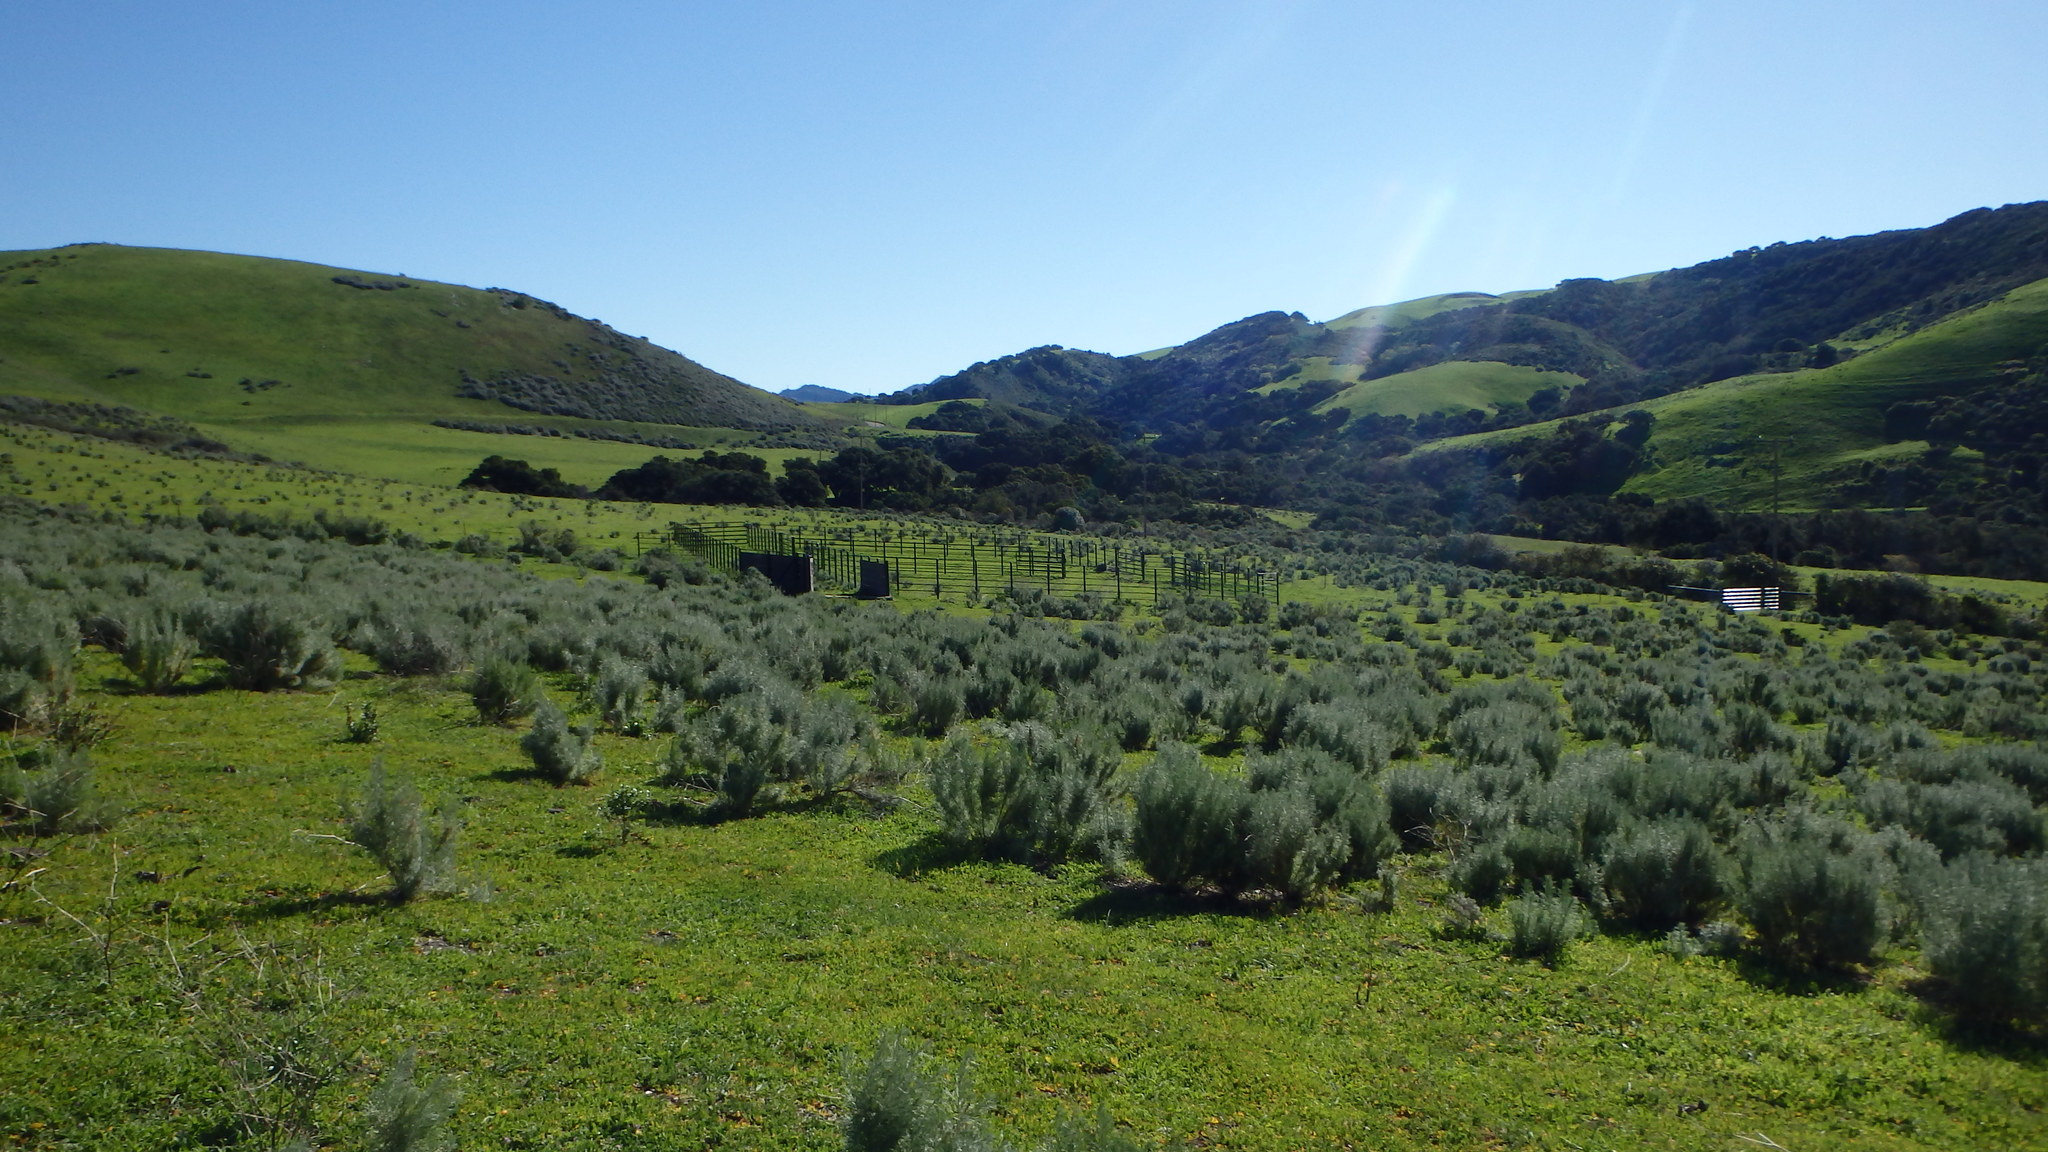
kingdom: Plantae
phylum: Tracheophyta
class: Magnoliopsida
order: Asterales
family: Asteraceae
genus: Artemisia
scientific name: Artemisia californica
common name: California sagebrush
